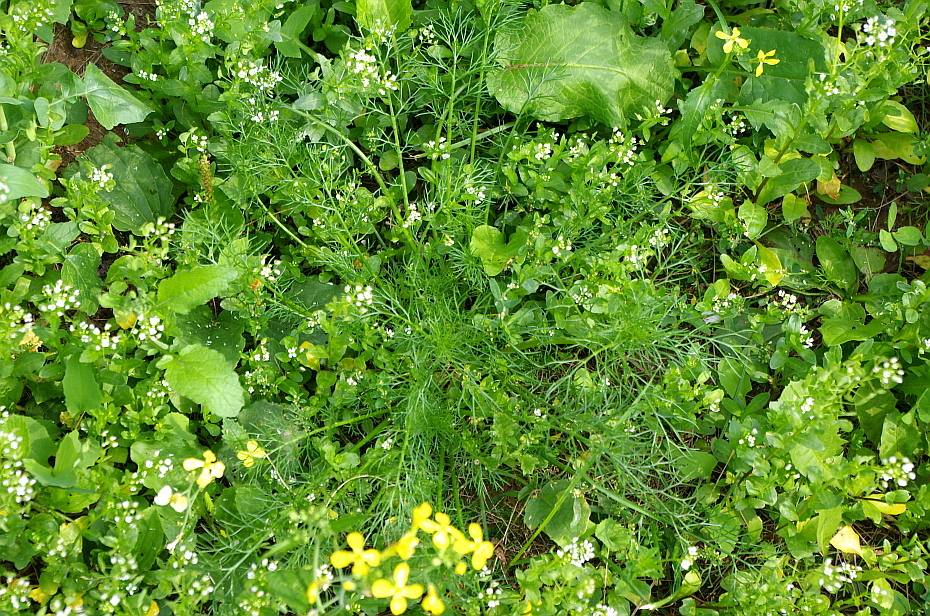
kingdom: Plantae
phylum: Tracheophyta
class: Magnoliopsida
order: Asterales
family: Asteraceae
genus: Tripleurospermum
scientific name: Tripleurospermum inodorum
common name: Scentless mayweed
